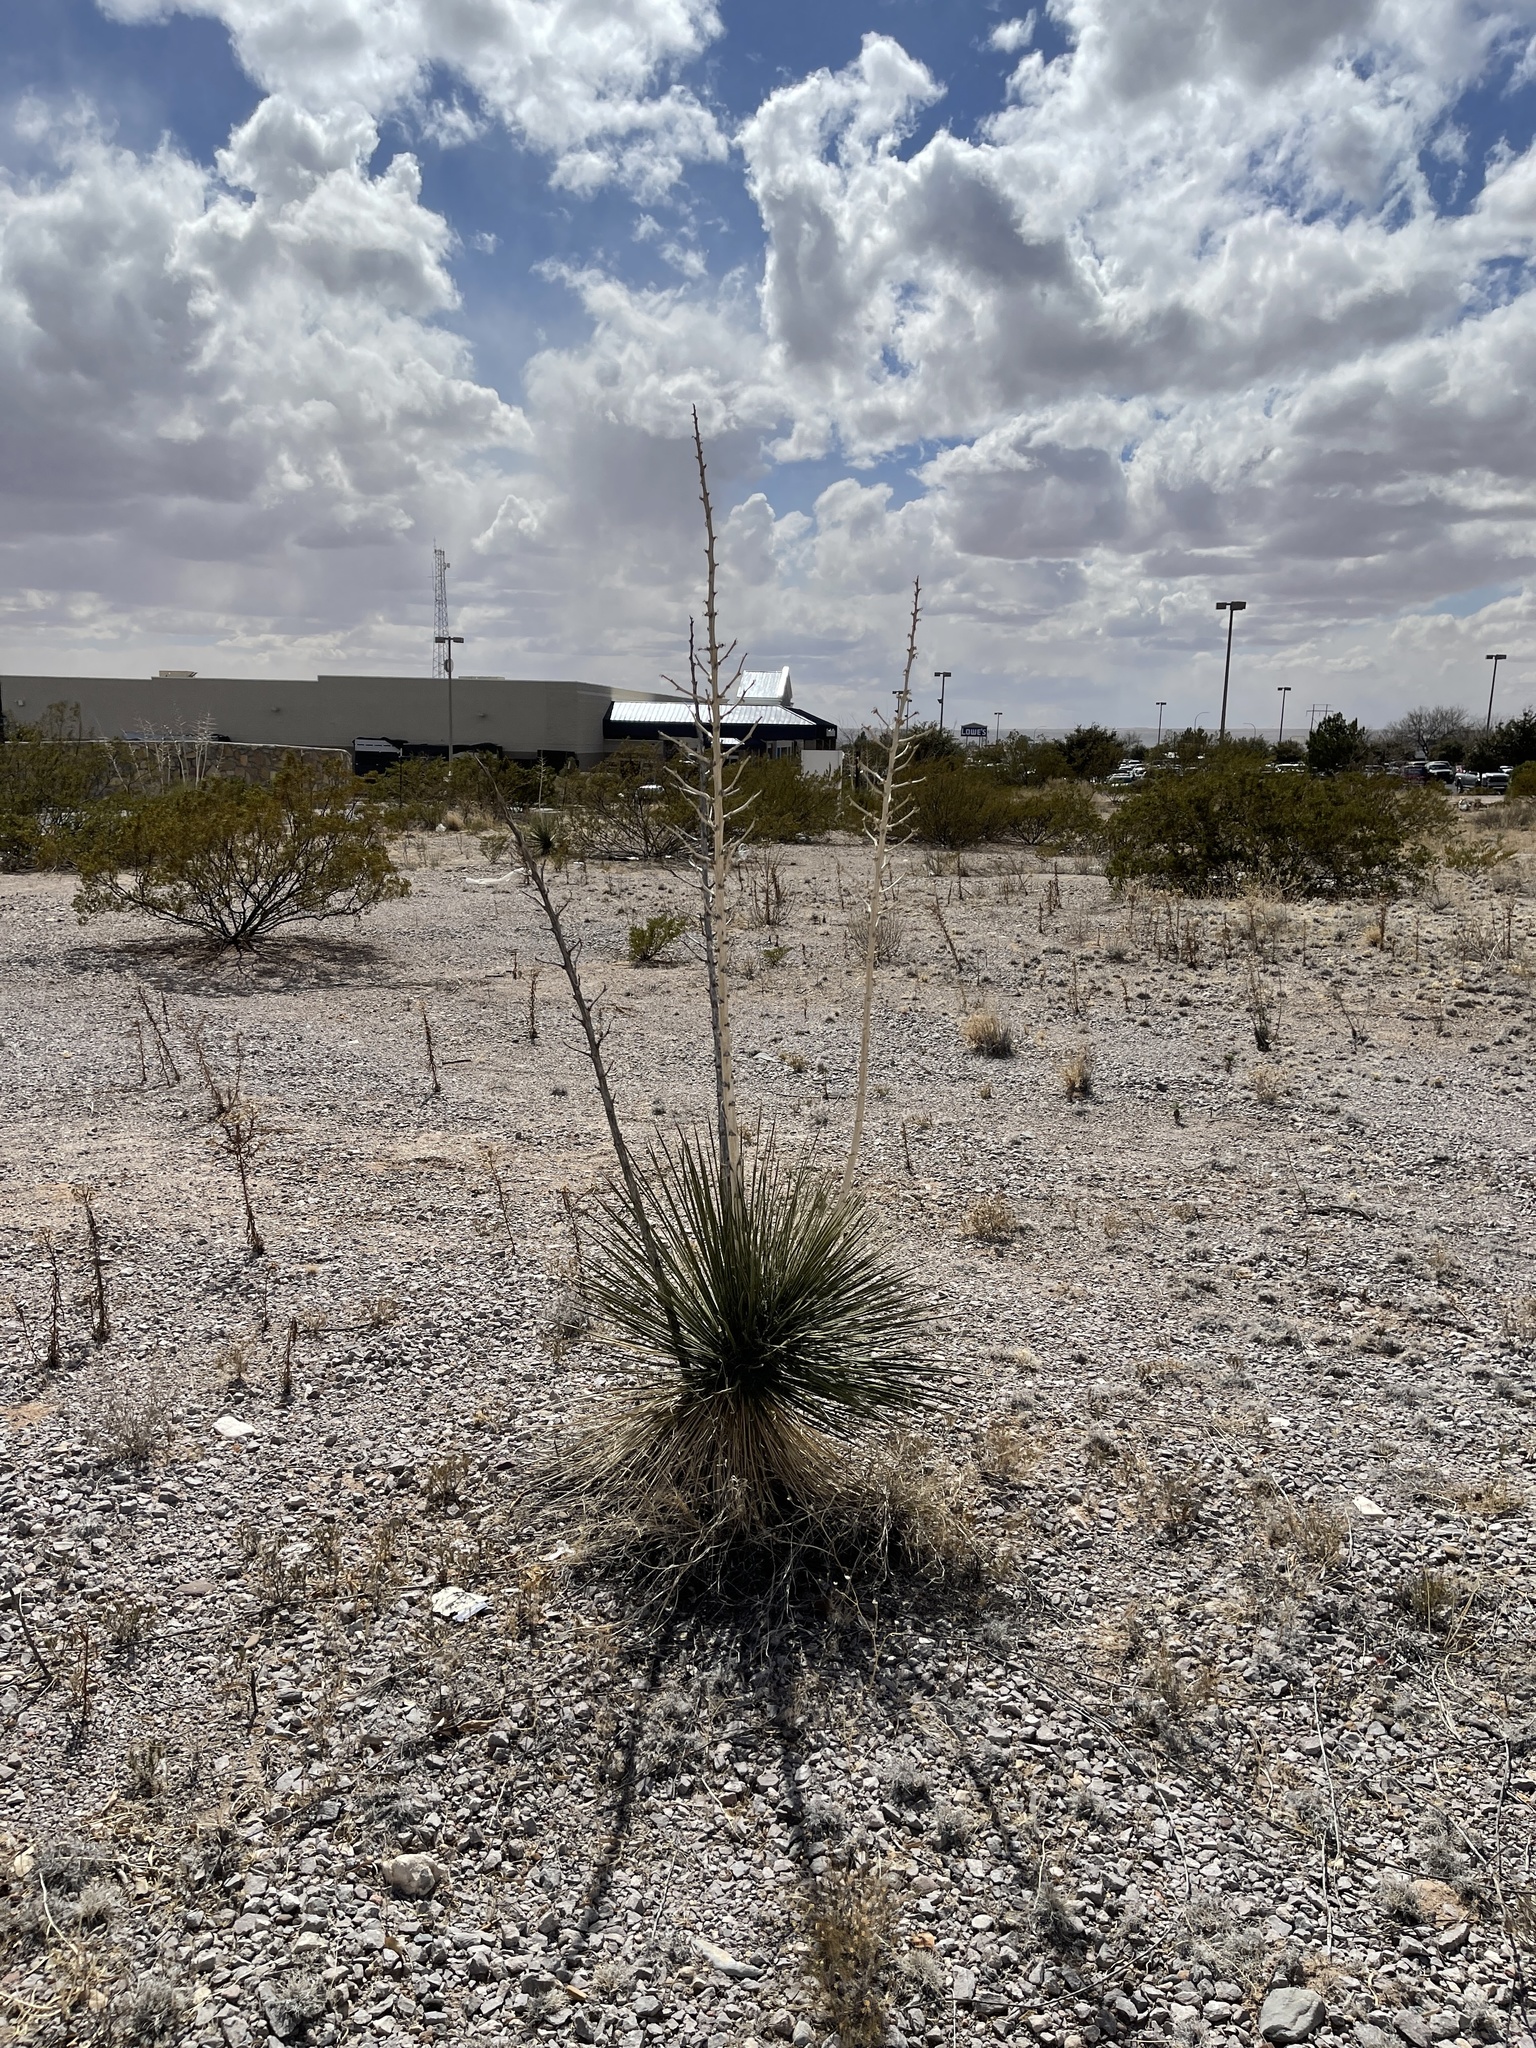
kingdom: Plantae
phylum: Tracheophyta
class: Liliopsida
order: Asparagales
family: Asparagaceae
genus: Yucca
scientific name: Yucca elata
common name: Palmella
